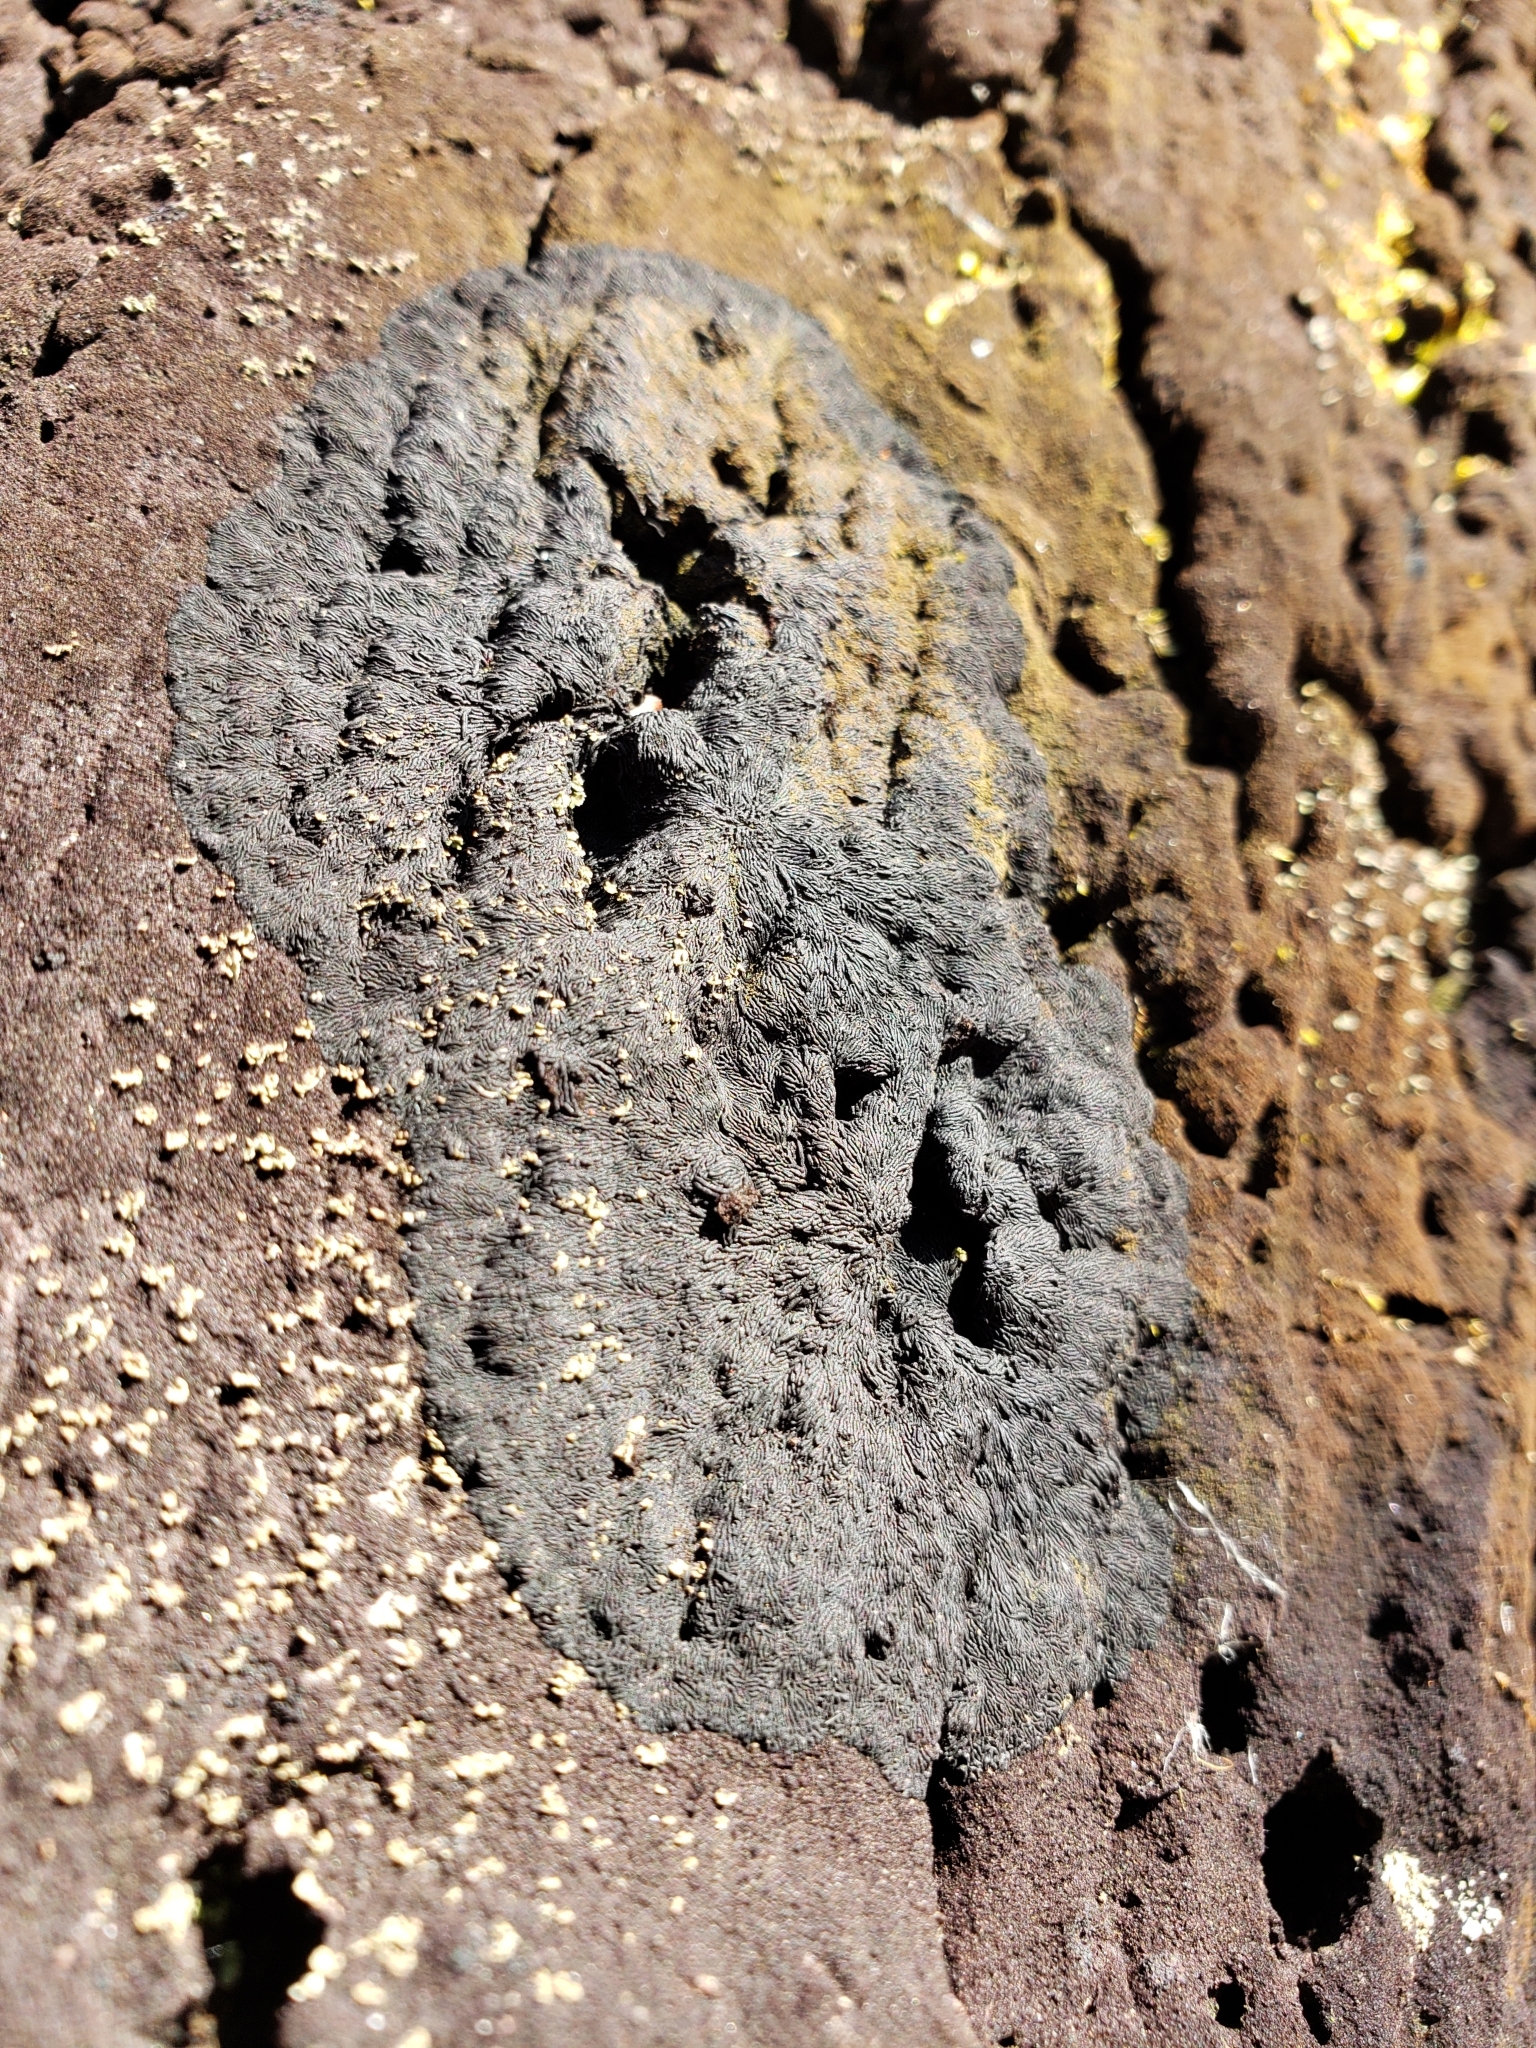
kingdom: Fungi
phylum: Ascomycota
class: Dothideomycetes
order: Mytilinidiales
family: Gloniaceae
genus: Glonium
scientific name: Glonium stellatum
